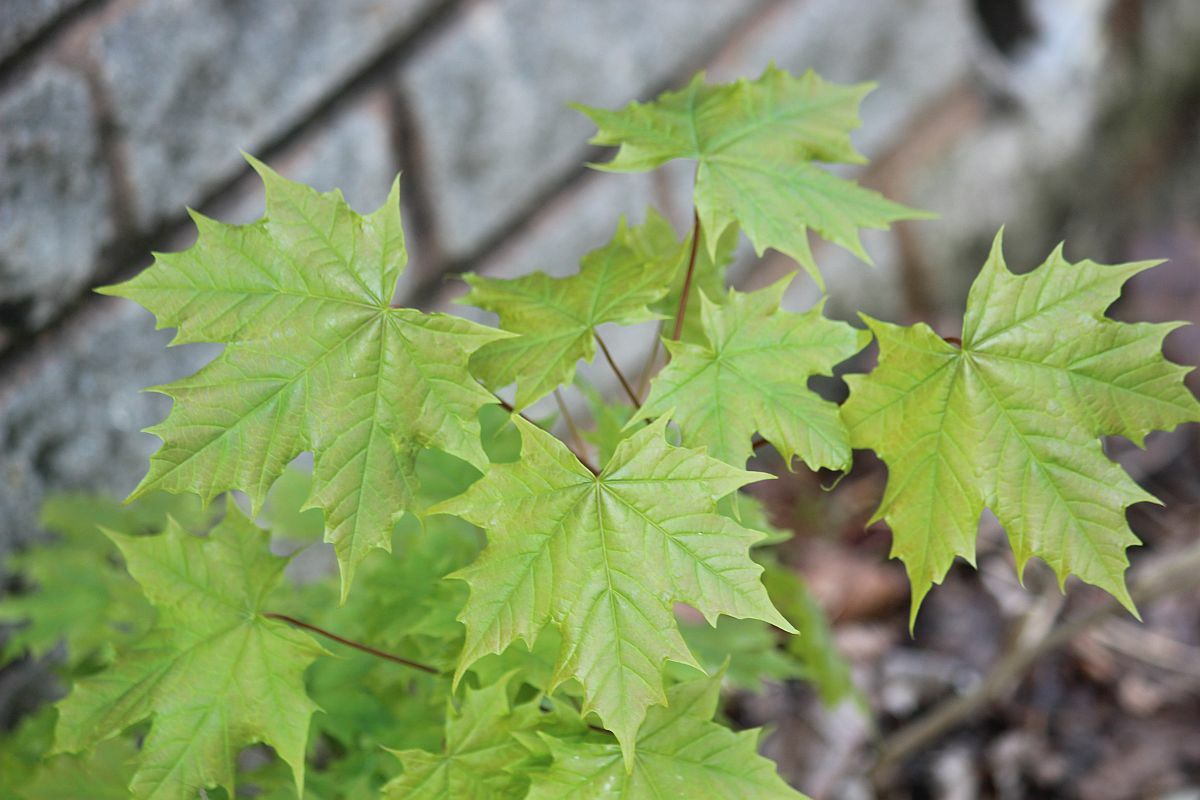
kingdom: Plantae
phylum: Tracheophyta
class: Magnoliopsida
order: Sapindales
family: Sapindaceae
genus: Acer
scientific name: Acer platanoides
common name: Norway maple
